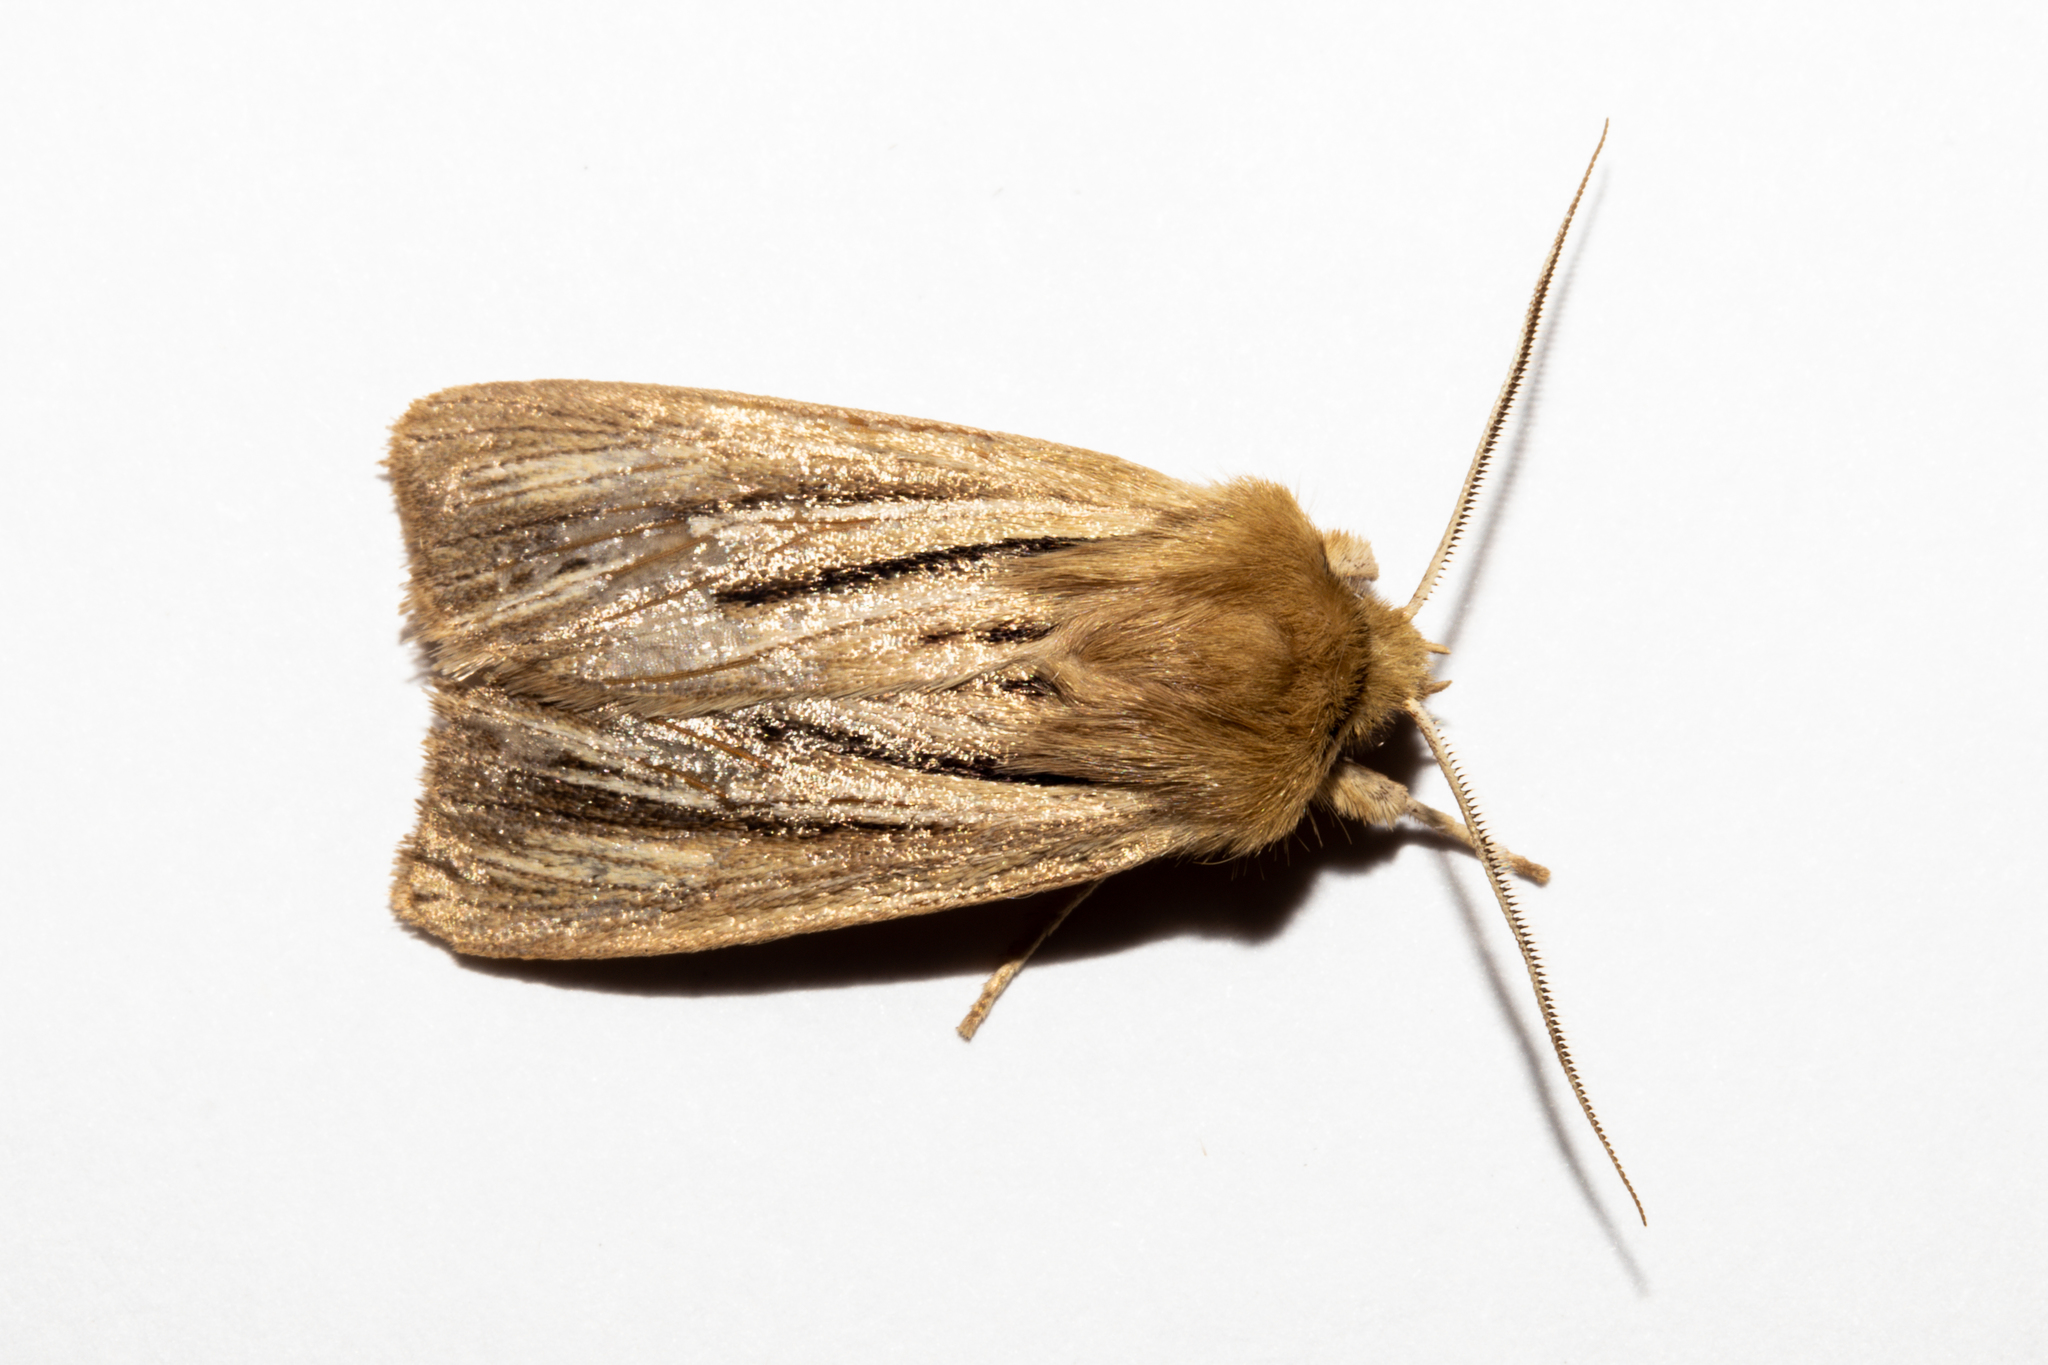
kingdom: Animalia
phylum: Arthropoda
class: Insecta
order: Lepidoptera
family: Noctuidae
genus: Ichneutica
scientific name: Ichneutica
